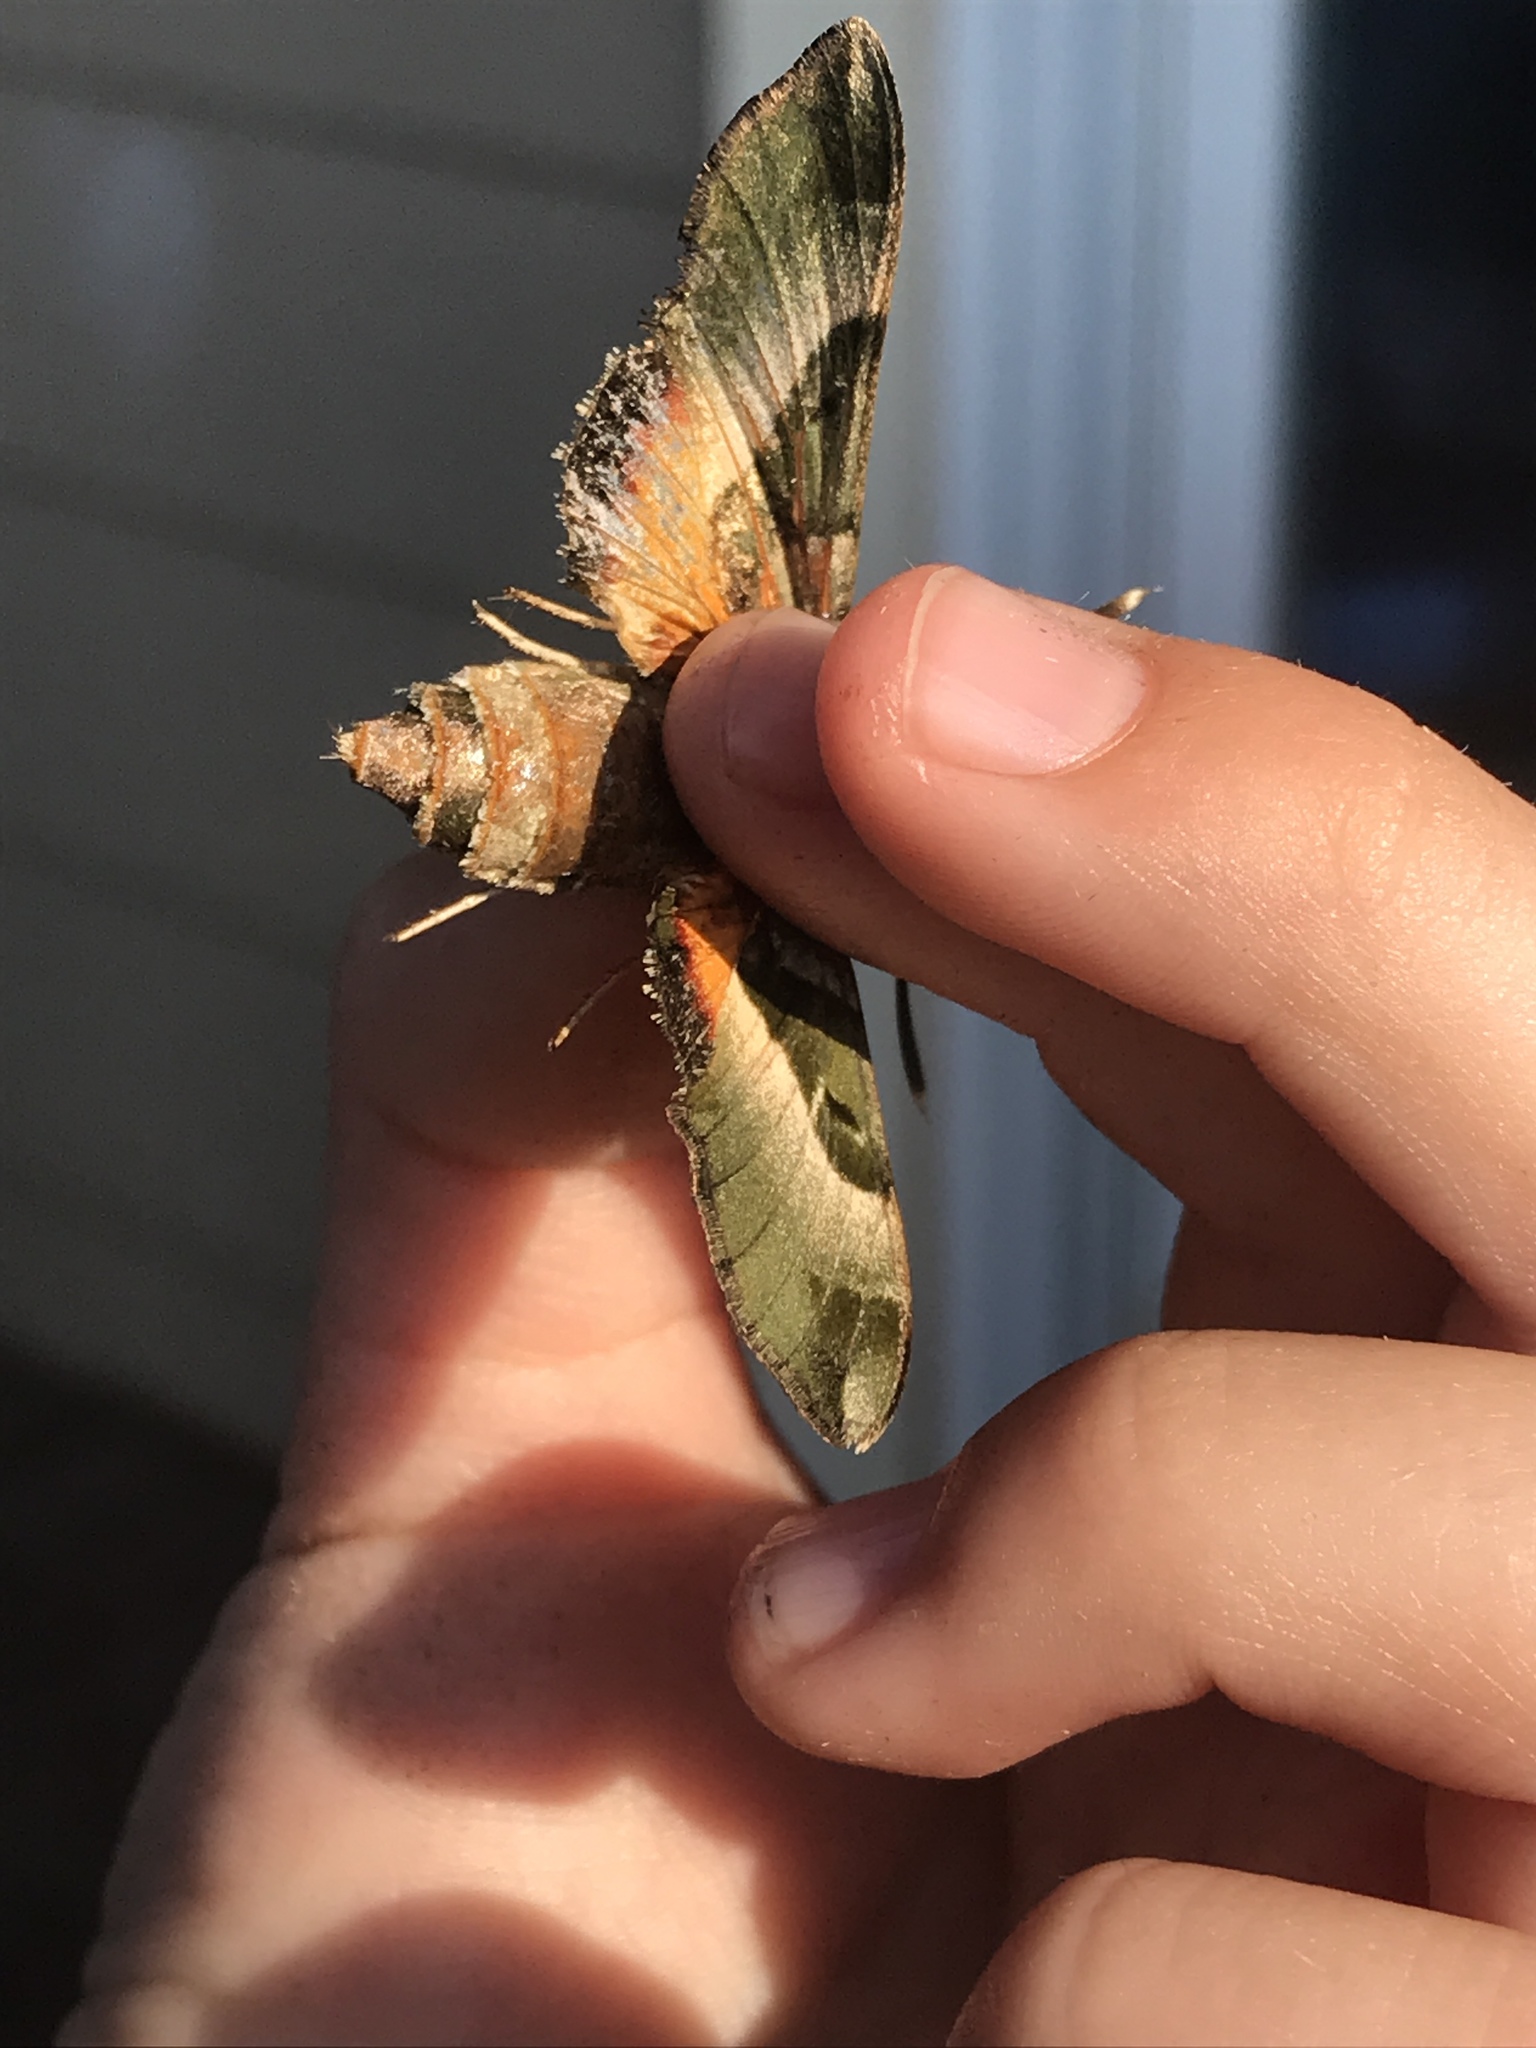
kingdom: Animalia
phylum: Arthropoda
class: Insecta
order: Lepidoptera
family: Sphingidae
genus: Proserpinus
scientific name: Proserpinus juanita
